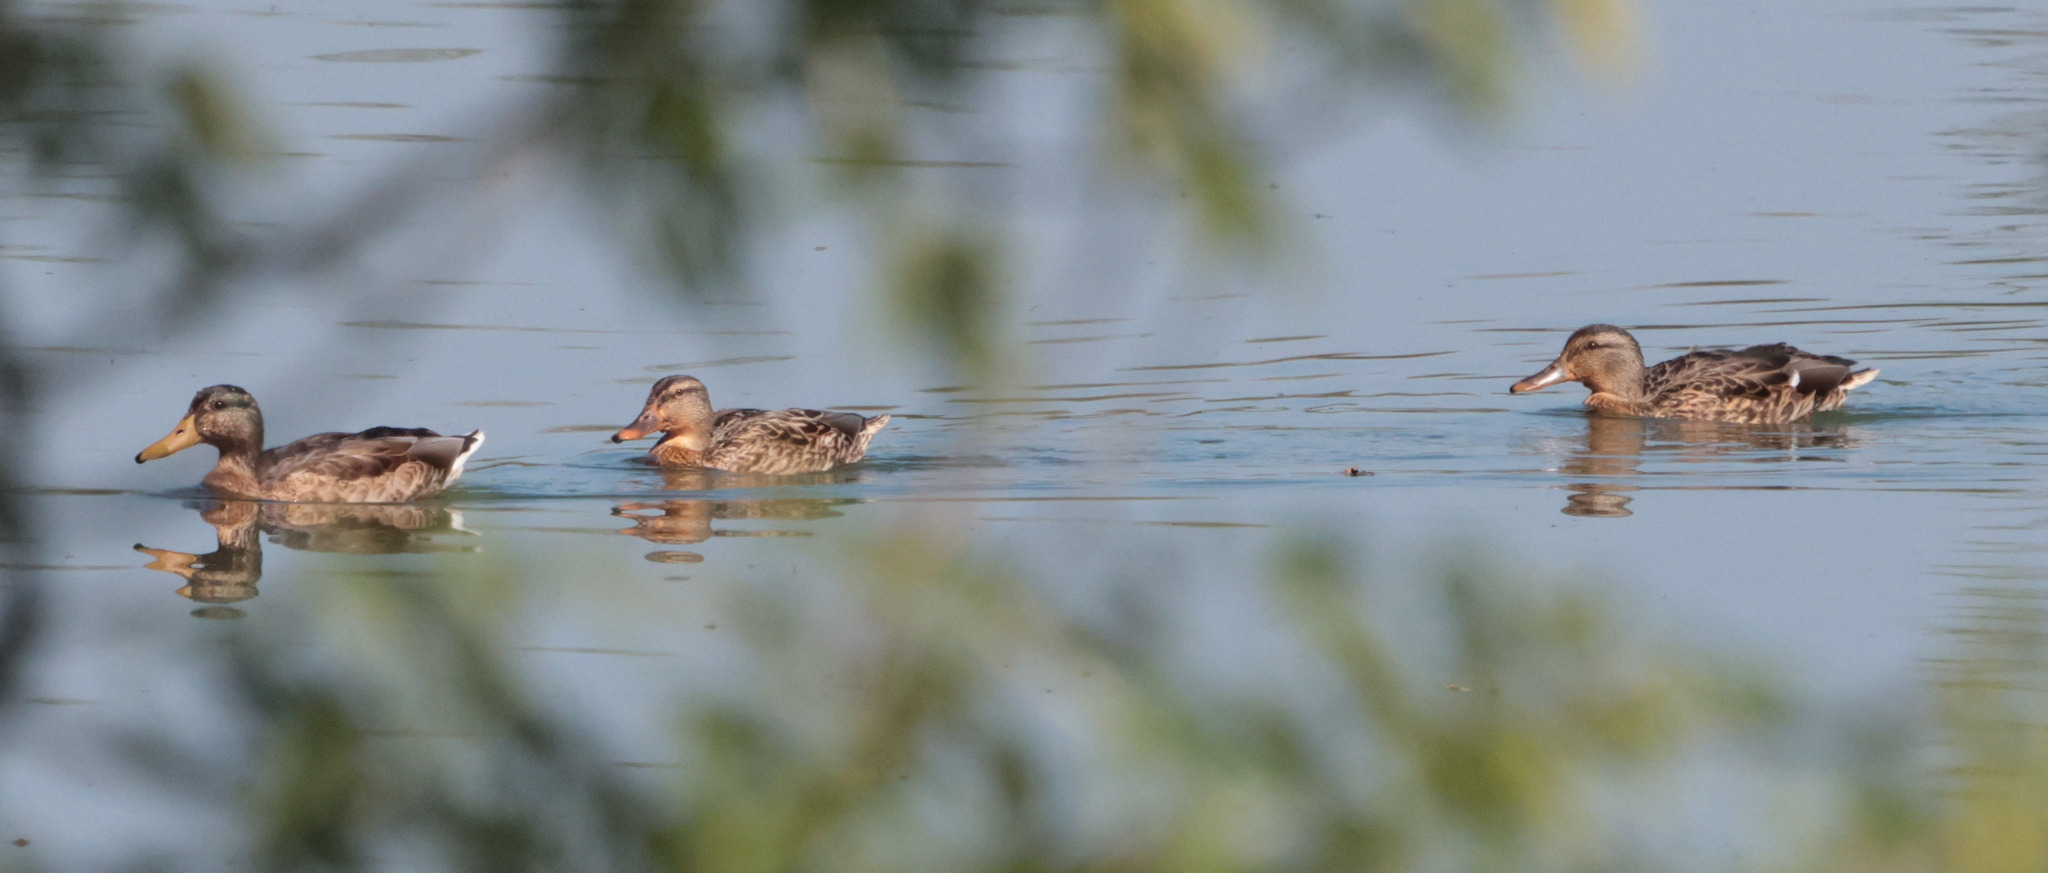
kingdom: Animalia
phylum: Chordata
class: Aves
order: Anseriformes
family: Anatidae
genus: Anas
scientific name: Anas platyrhynchos
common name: Mallard
